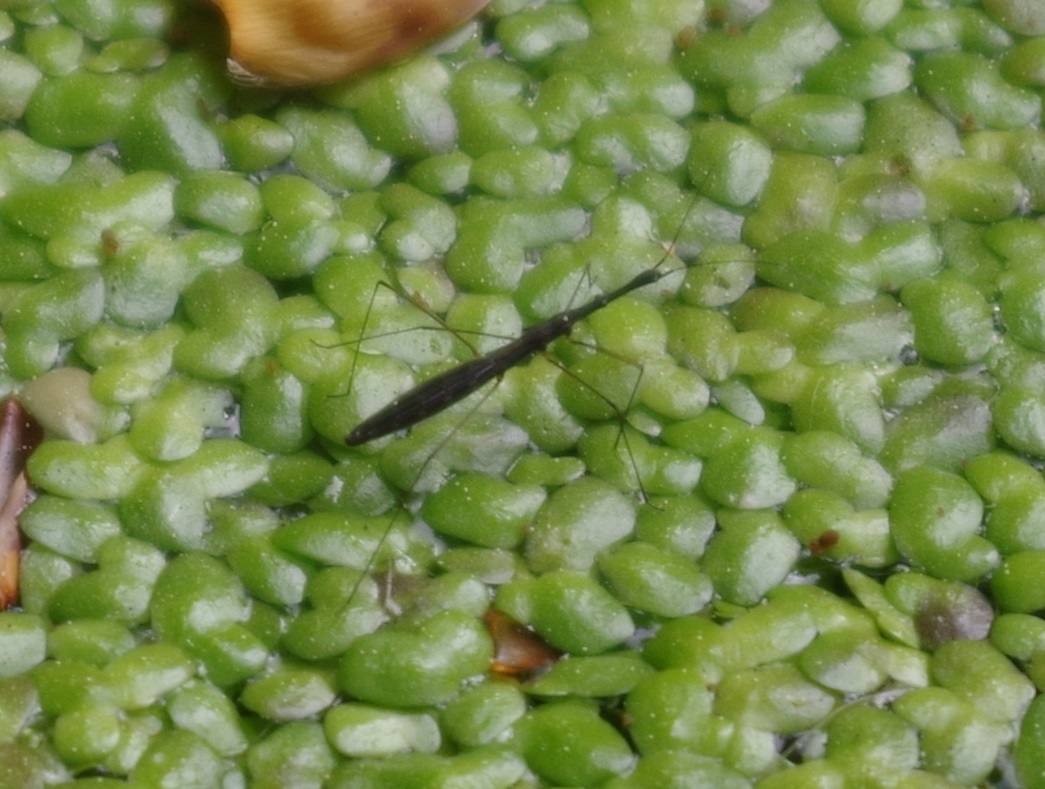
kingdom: Animalia
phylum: Arthropoda
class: Insecta
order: Hemiptera
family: Hydrometridae
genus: Hydrometra
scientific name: Hydrometra stagnorum
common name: Water measurer
